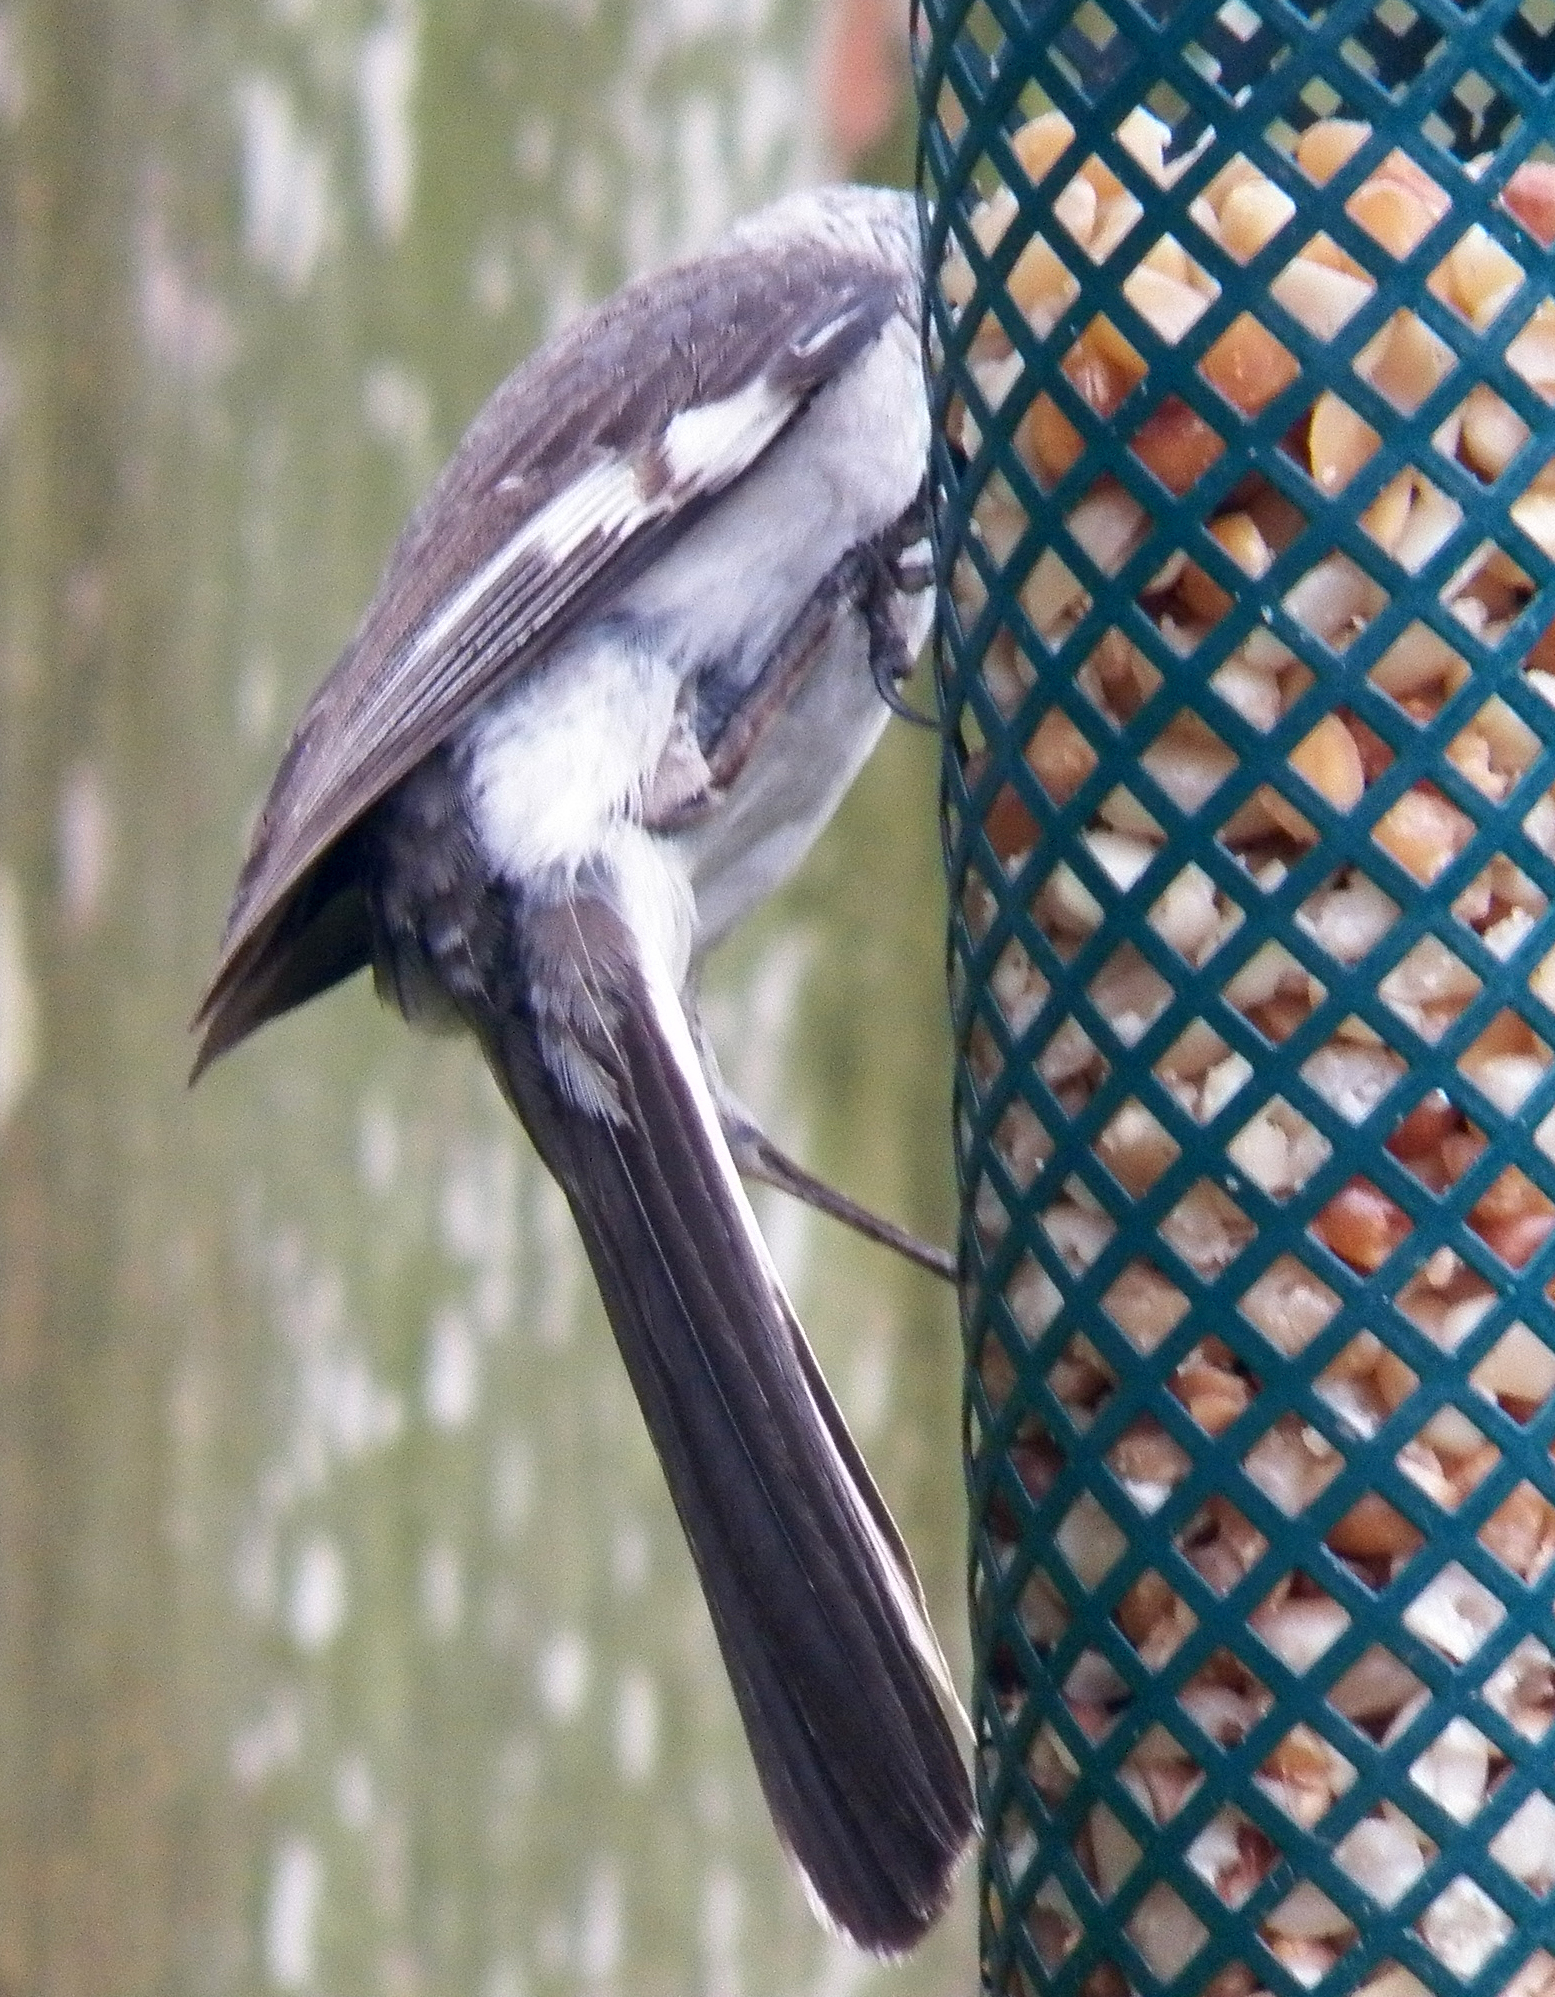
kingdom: Animalia
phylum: Chordata
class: Aves
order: Passeriformes
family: Mimidae
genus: Mimus
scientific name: Mimus polyglottos
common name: Northern mockingbird
